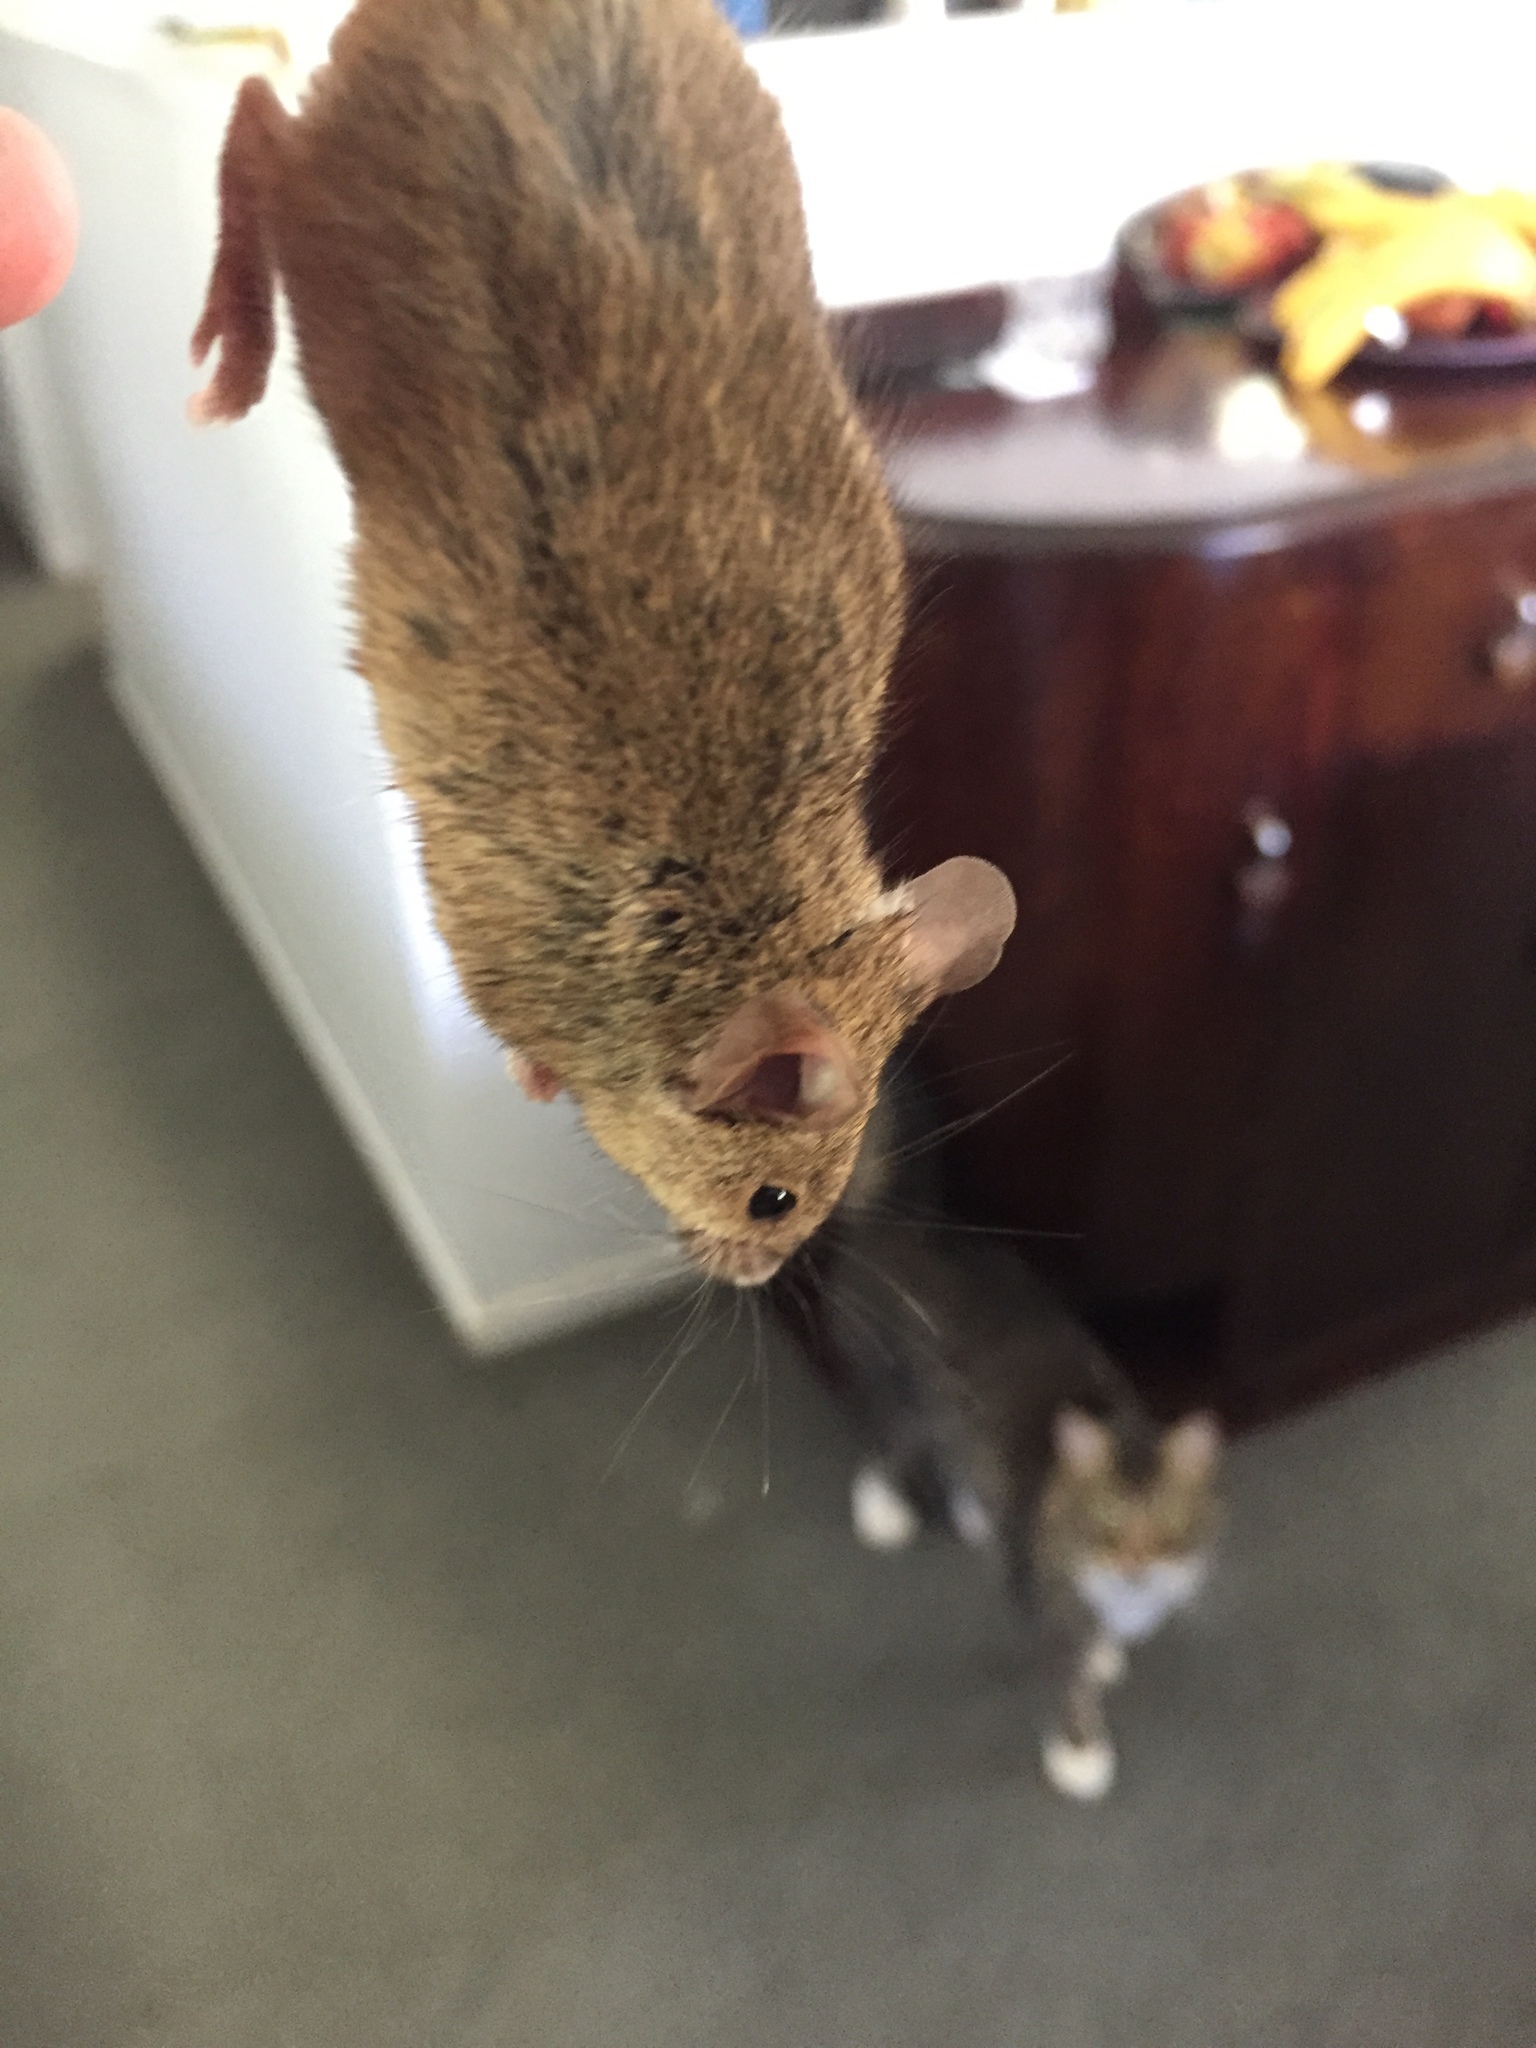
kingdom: Animalia
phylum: Chordata
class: Mammalia
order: Rodentia
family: Muridae
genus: Mus
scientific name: Mus musculus
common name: House mouse
